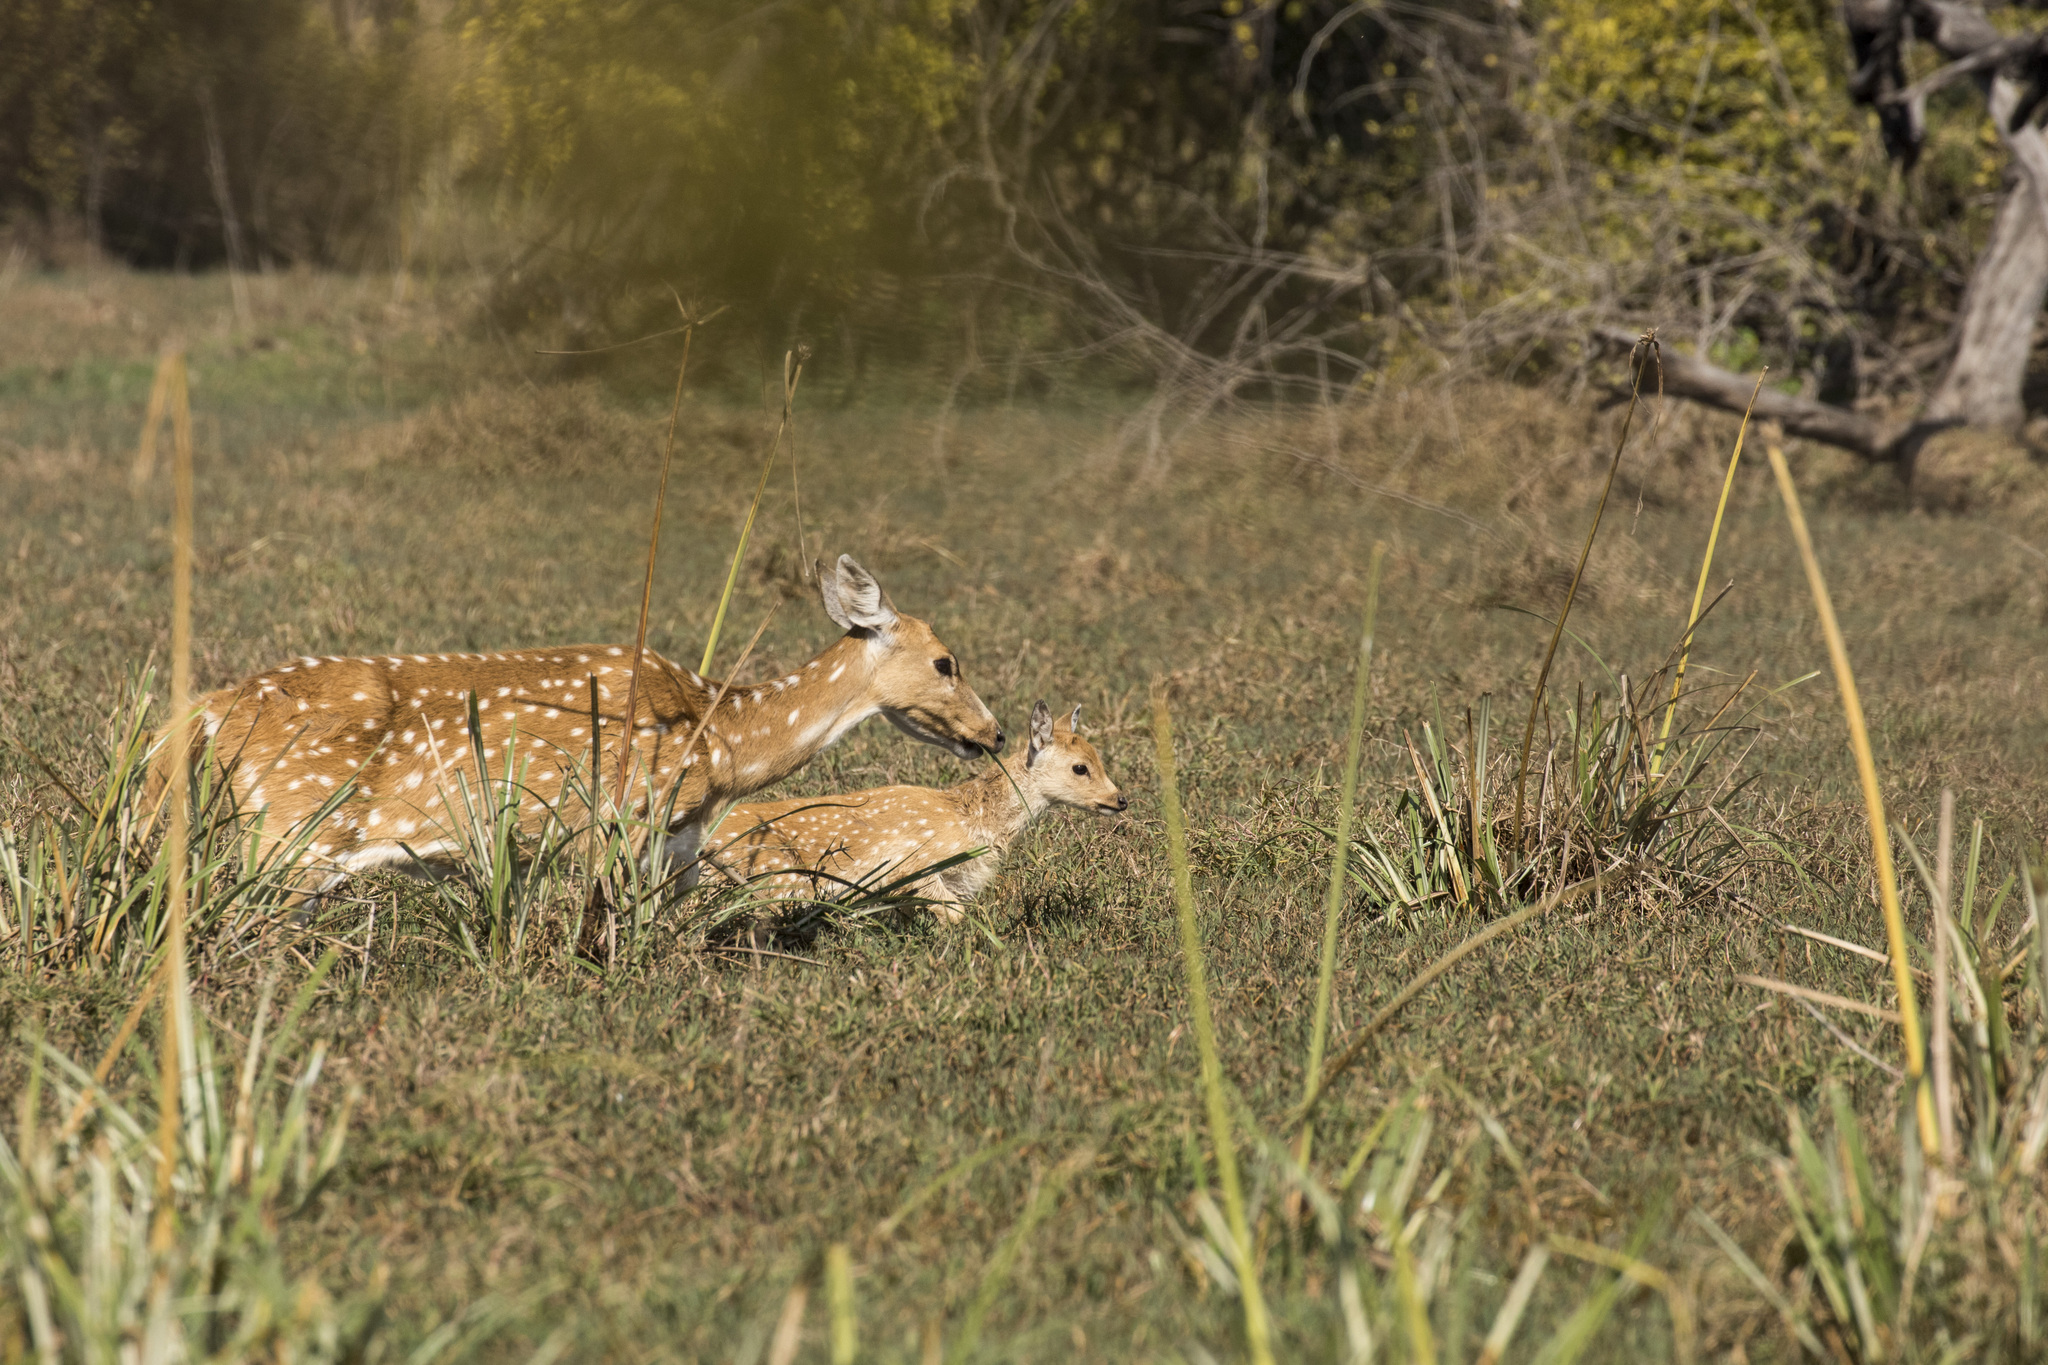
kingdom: Animalia
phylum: Chordata
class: Mammalia
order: Artiodactyla
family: Cervidae
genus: Axis
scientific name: Axis axis
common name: Chital
